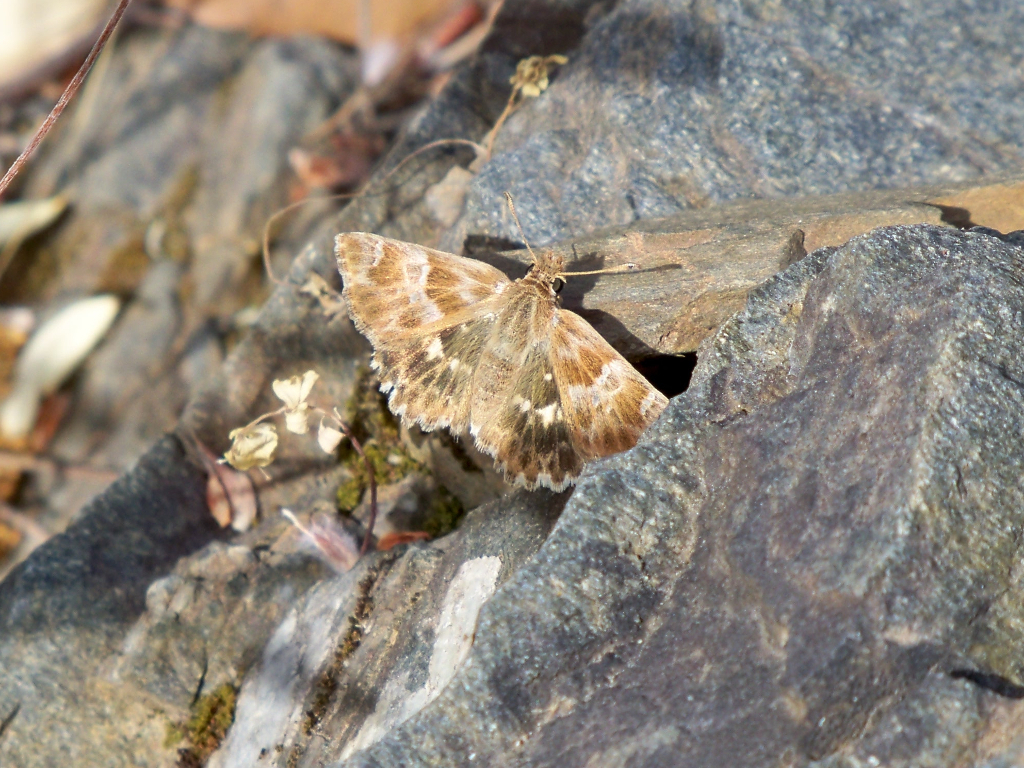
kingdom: Animalia
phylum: Arthropoda
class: Insecta
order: Lepidoptera
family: Hesperiidae
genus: Syrichtus
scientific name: Syrichtus Muschampia baeticus
